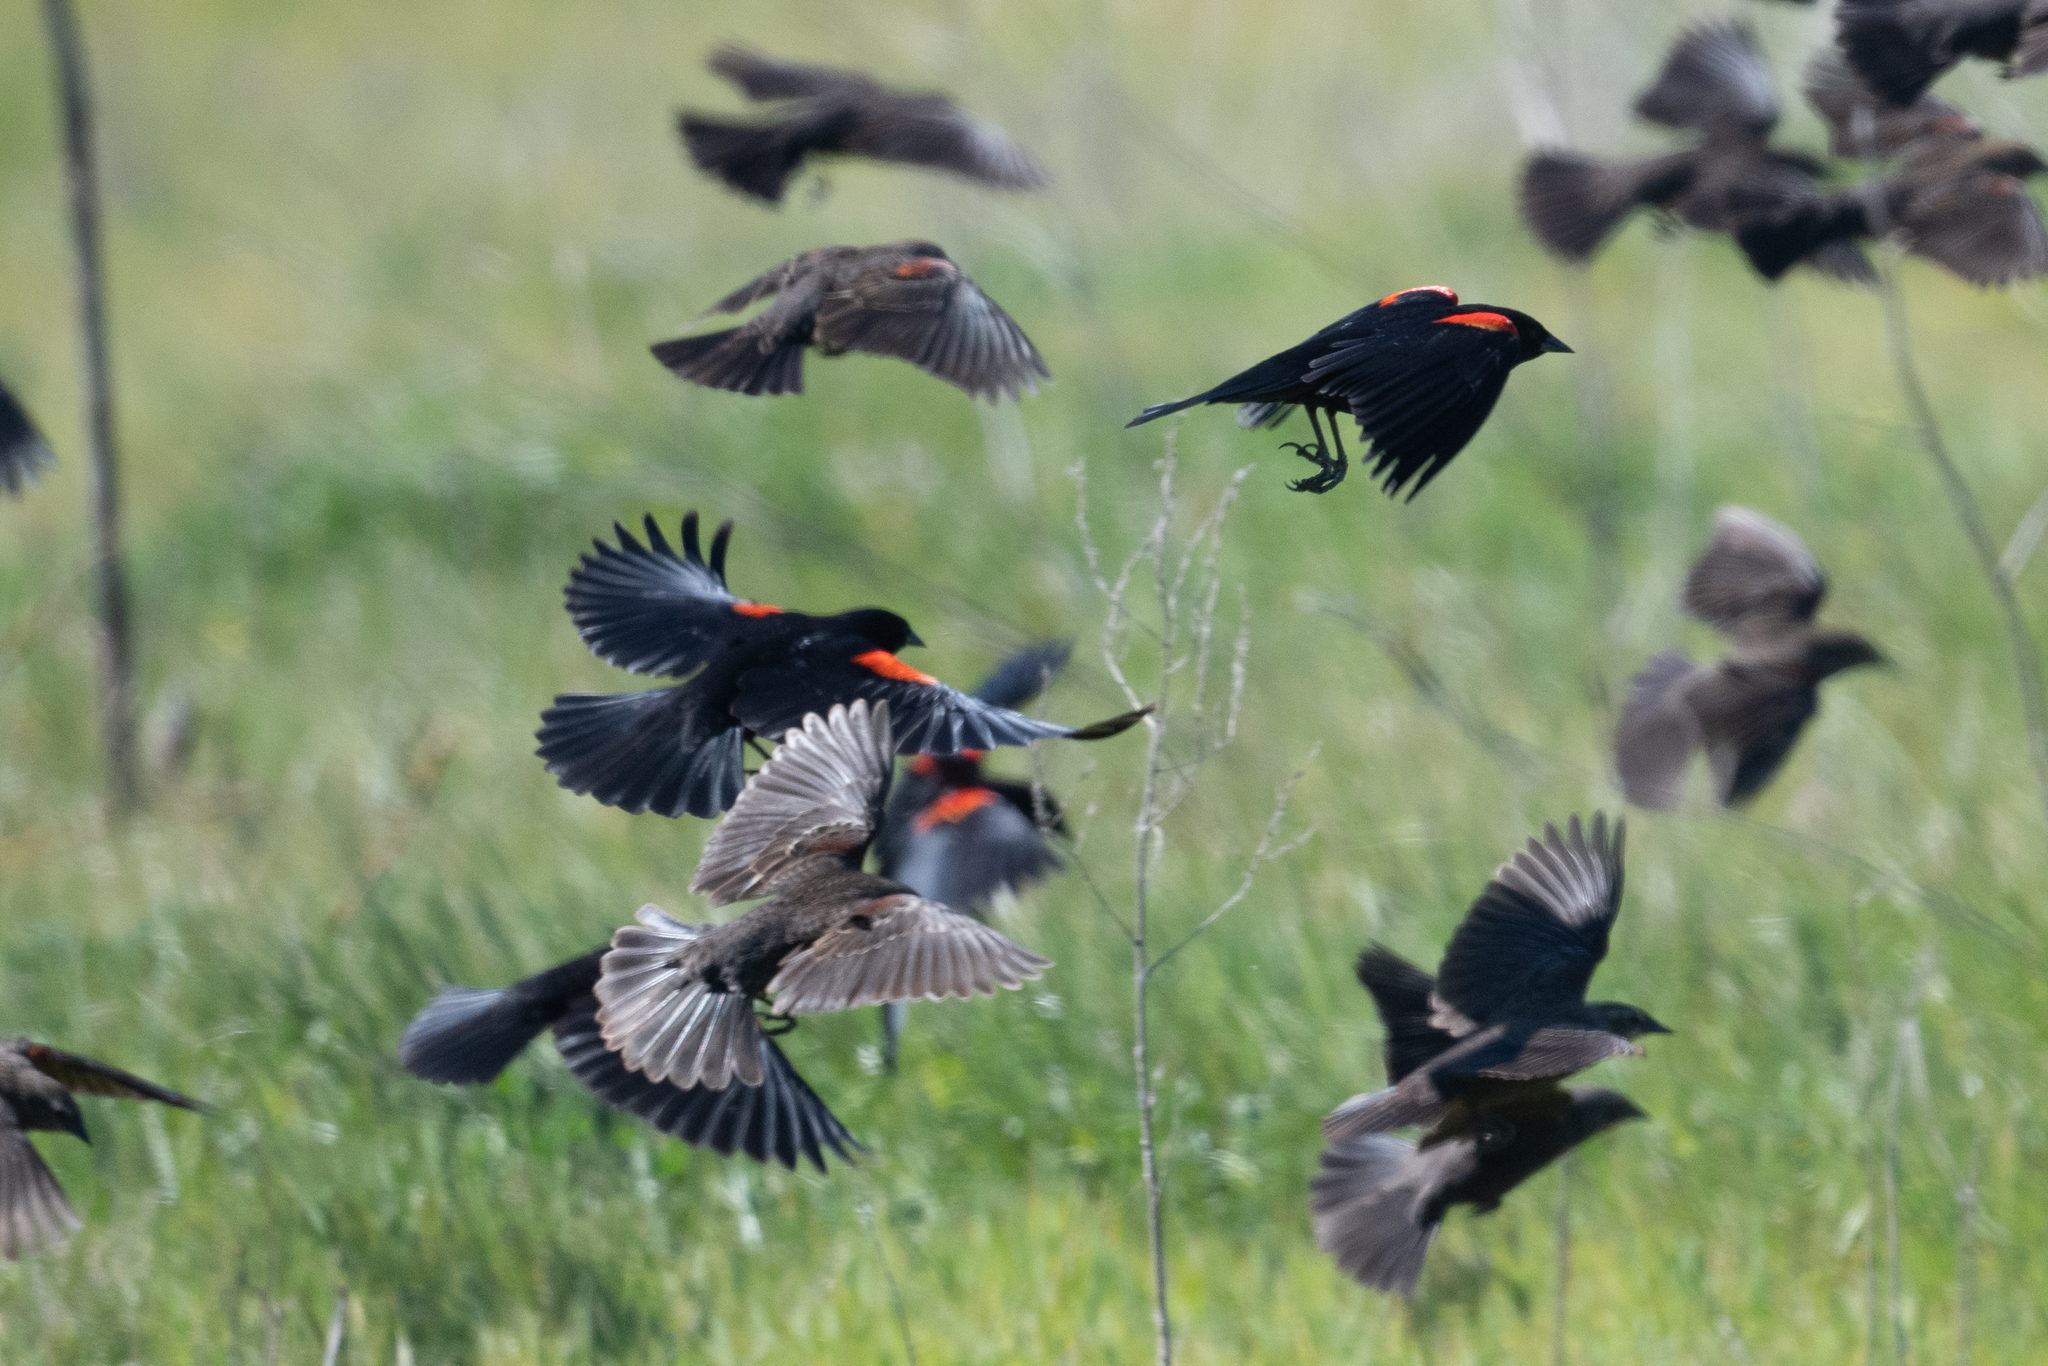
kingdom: Animalia
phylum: Chordata
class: Aves
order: Passeriformes
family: Icteridae
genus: Agelaius
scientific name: Agelaius phoeniceus
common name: Red-winged blackbird
